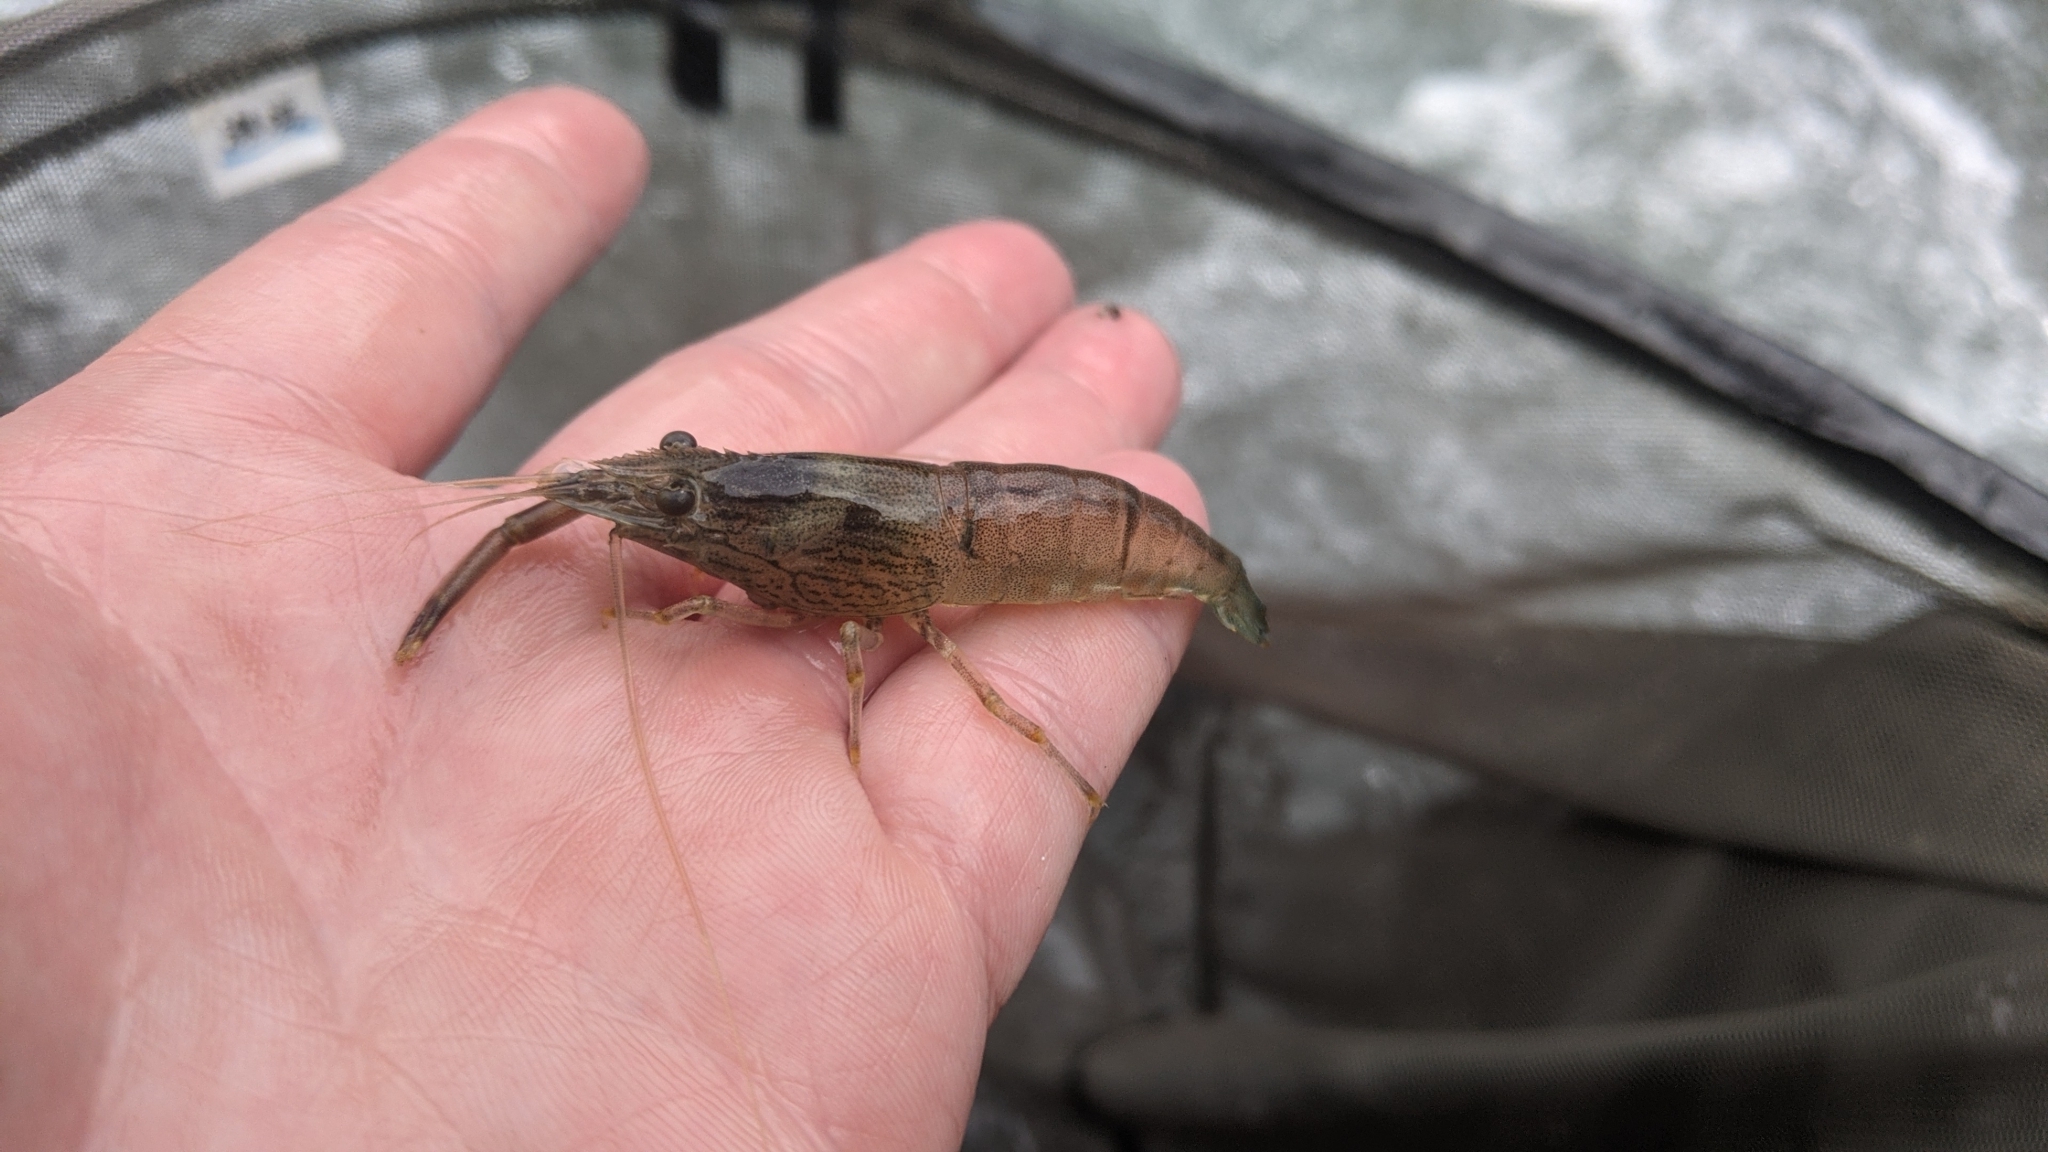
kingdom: Animalia
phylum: Arthropoda
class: Malacostraca
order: Decapoda
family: Palaemonidae
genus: Macrobrachium
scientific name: Macrobrachium japonicum
